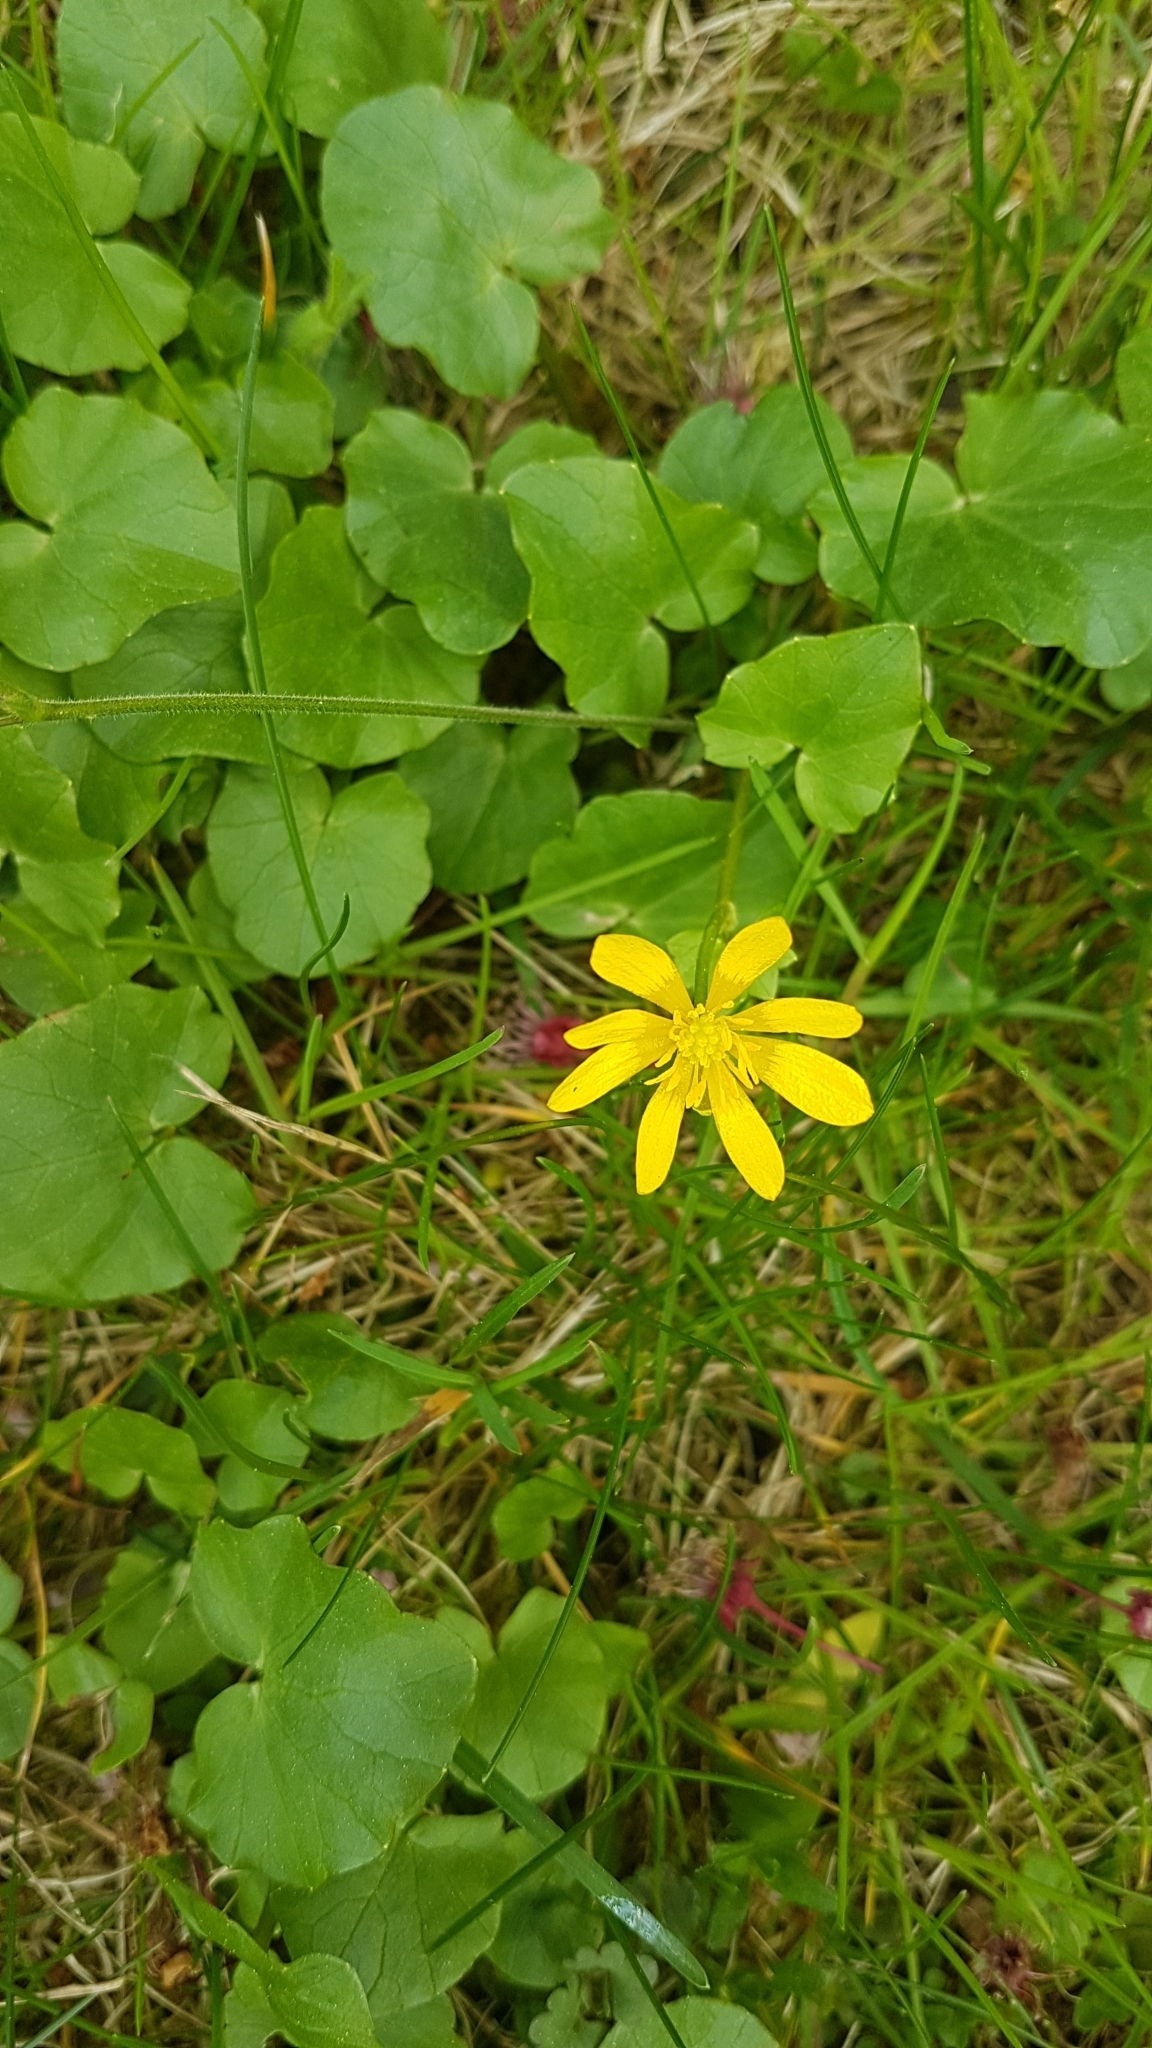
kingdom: Plantae
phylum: Tracheophyta
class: Magnoliopsida
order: Ranunculales
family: Ranunculaceae
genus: Ficaria
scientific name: Ficaria verna
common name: Lesser celandine
